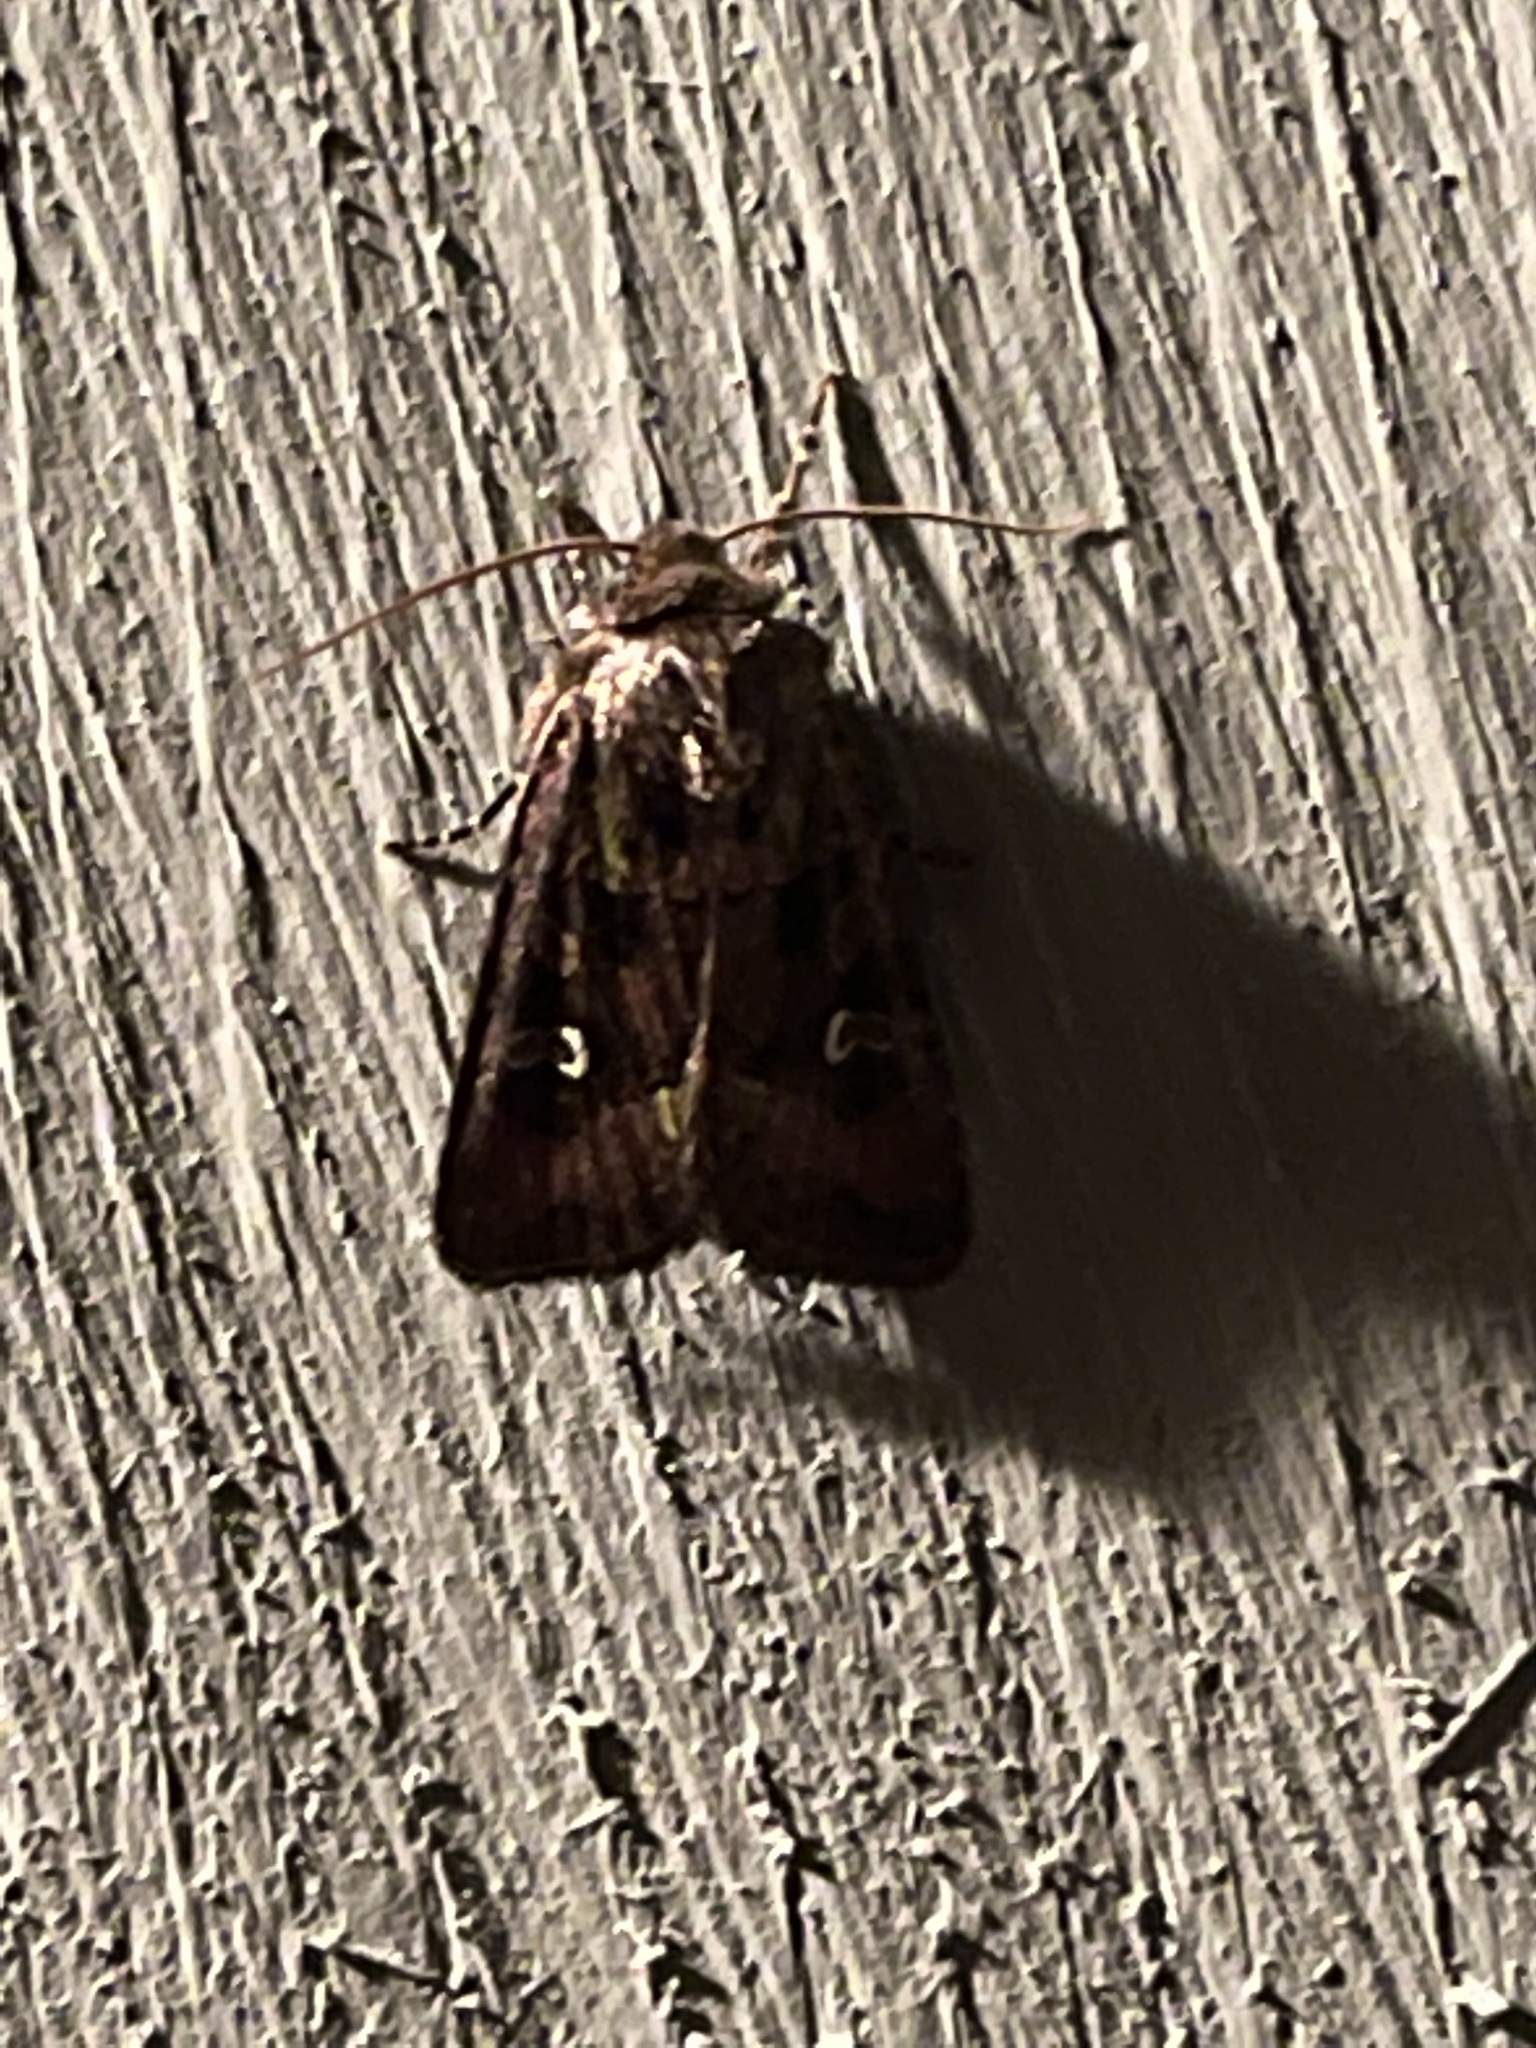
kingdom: Animalia
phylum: Arthropoda
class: Insecta
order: Lepidoptera
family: Noctuidae
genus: Lacinipolia
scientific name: Lacinipolia renigera
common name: Kidney-spotted minor
